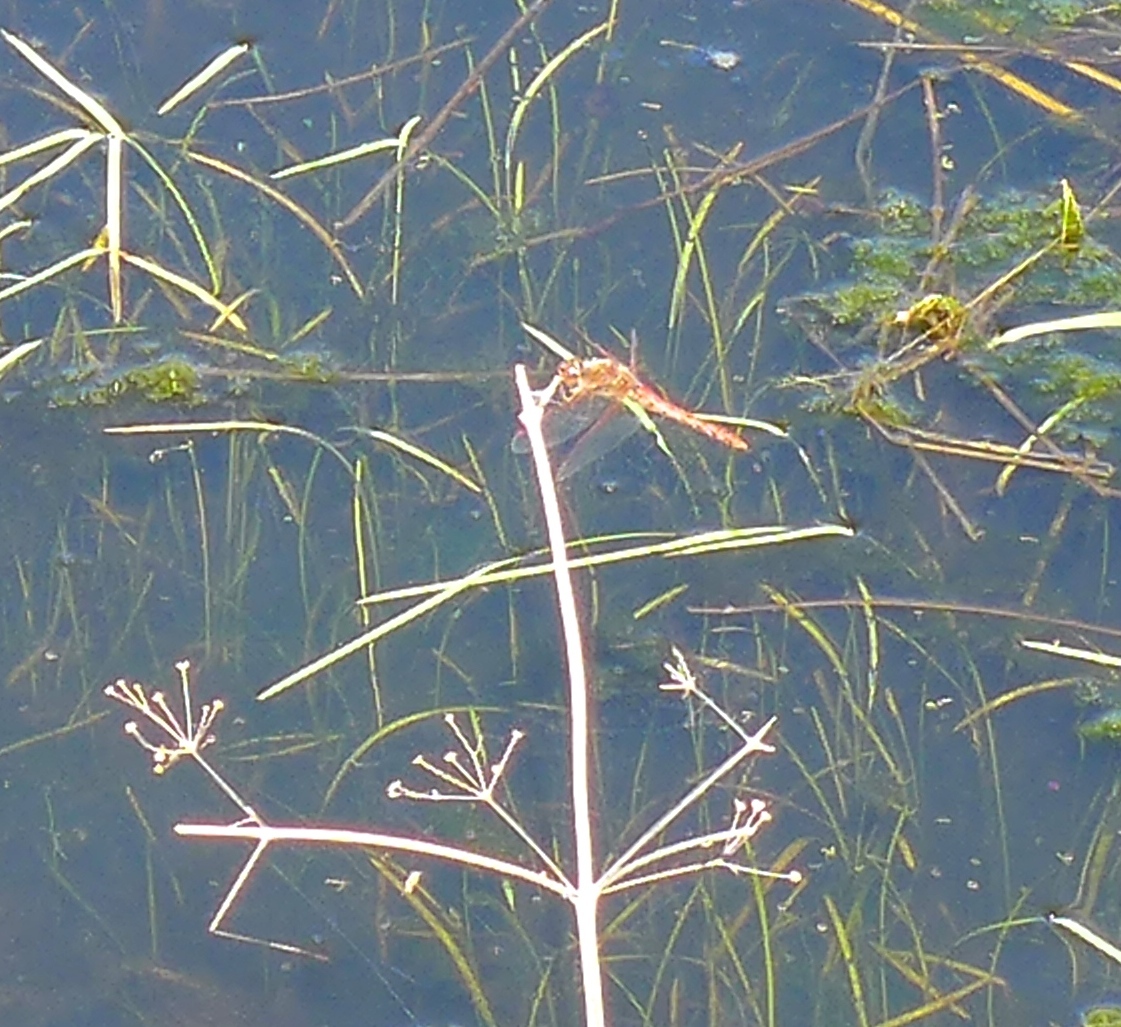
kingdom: Animalia
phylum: Arthropoda
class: Insecta
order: Odonata
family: Libellulidae
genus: Sympetrum
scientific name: Sympetrum corruptum
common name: Variegated meadowhawk
